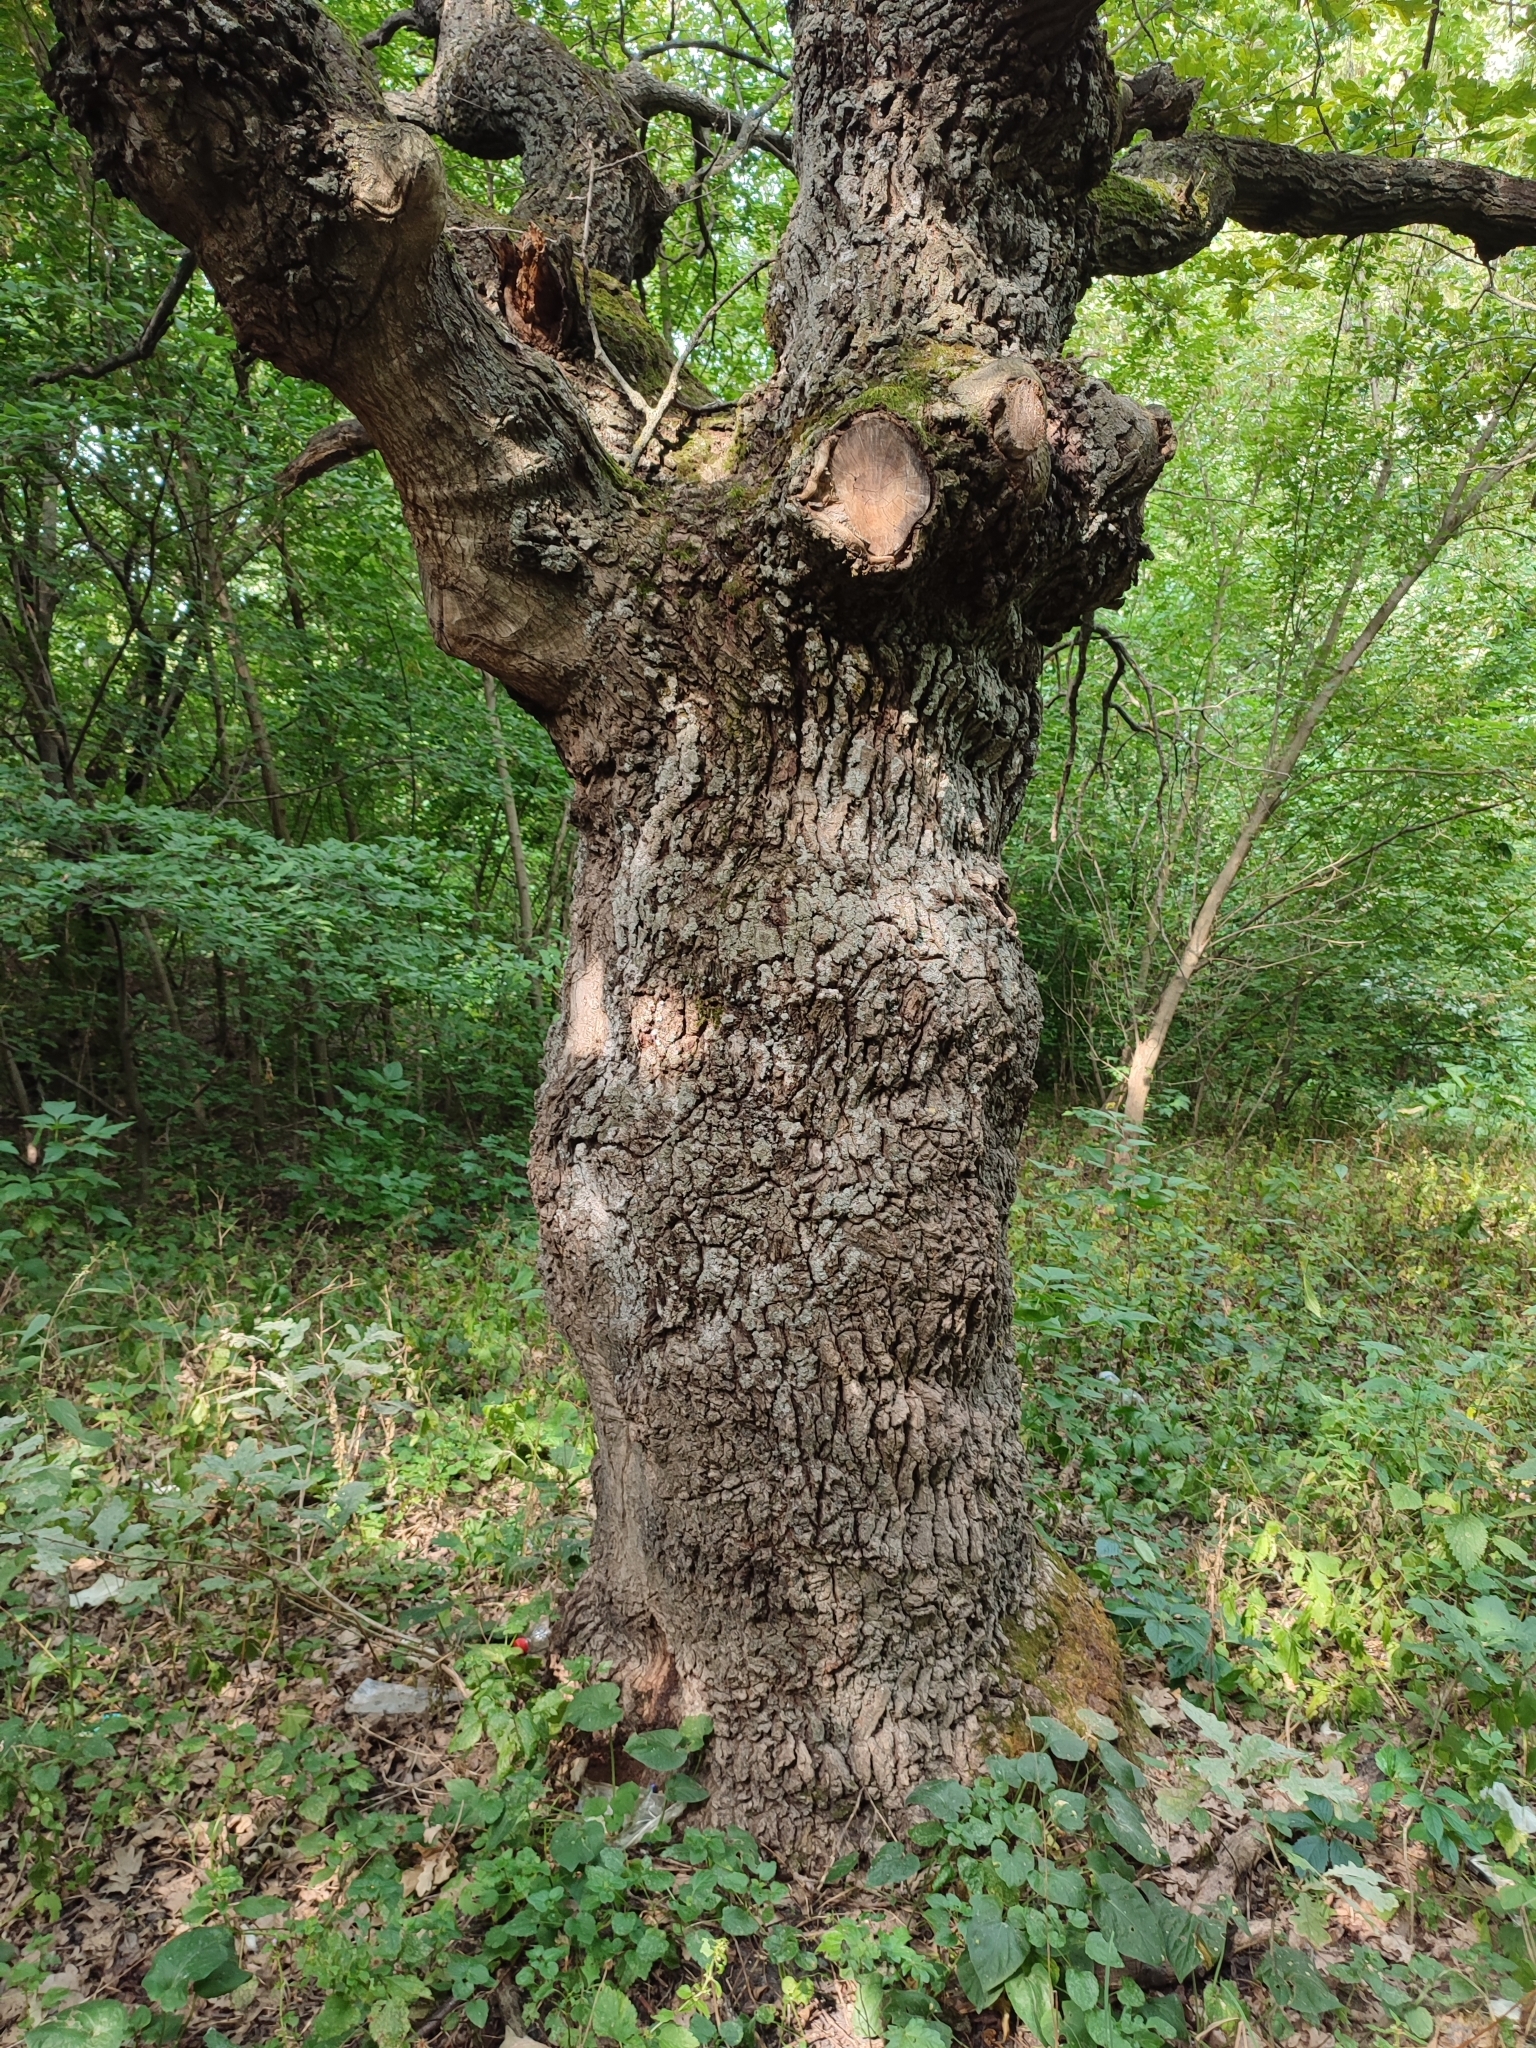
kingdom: Plantae
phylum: Tracheophyta
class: Magnoliopsida
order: Fagales
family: Fagaceae
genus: Quercus
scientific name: Quercus robur
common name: Pedunculate oak
